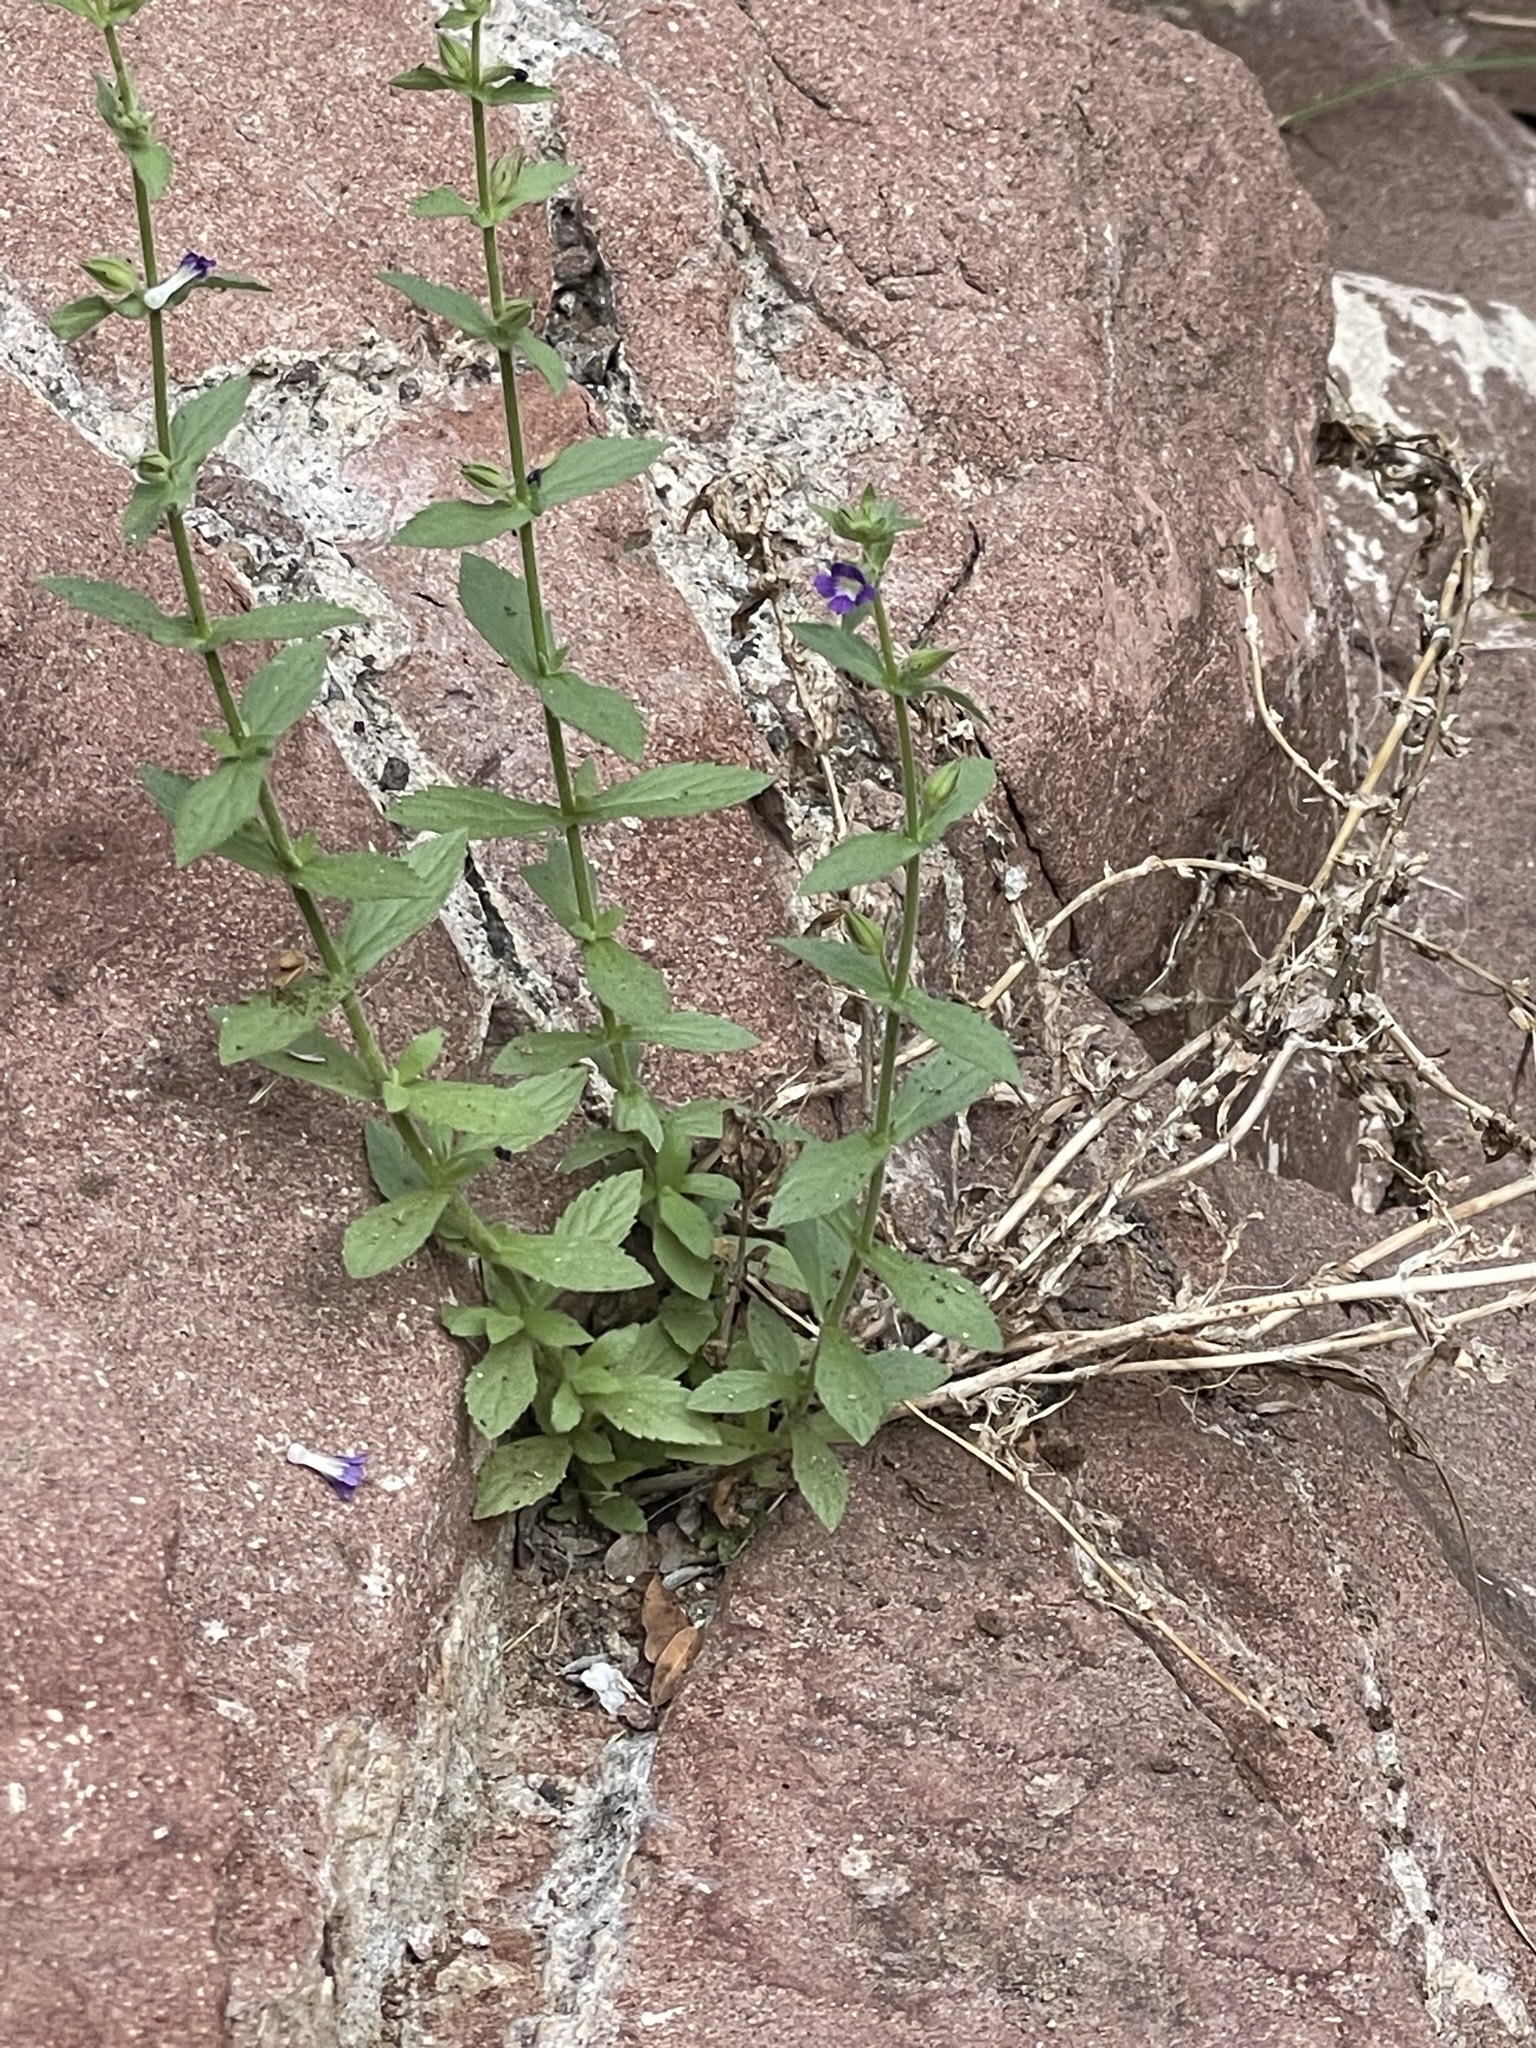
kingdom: Plantae
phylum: Tracheophyta
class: Magnoliopsida
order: Lamiales
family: Plantaginaceae
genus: Stemodia
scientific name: Stemodia durantifolia
